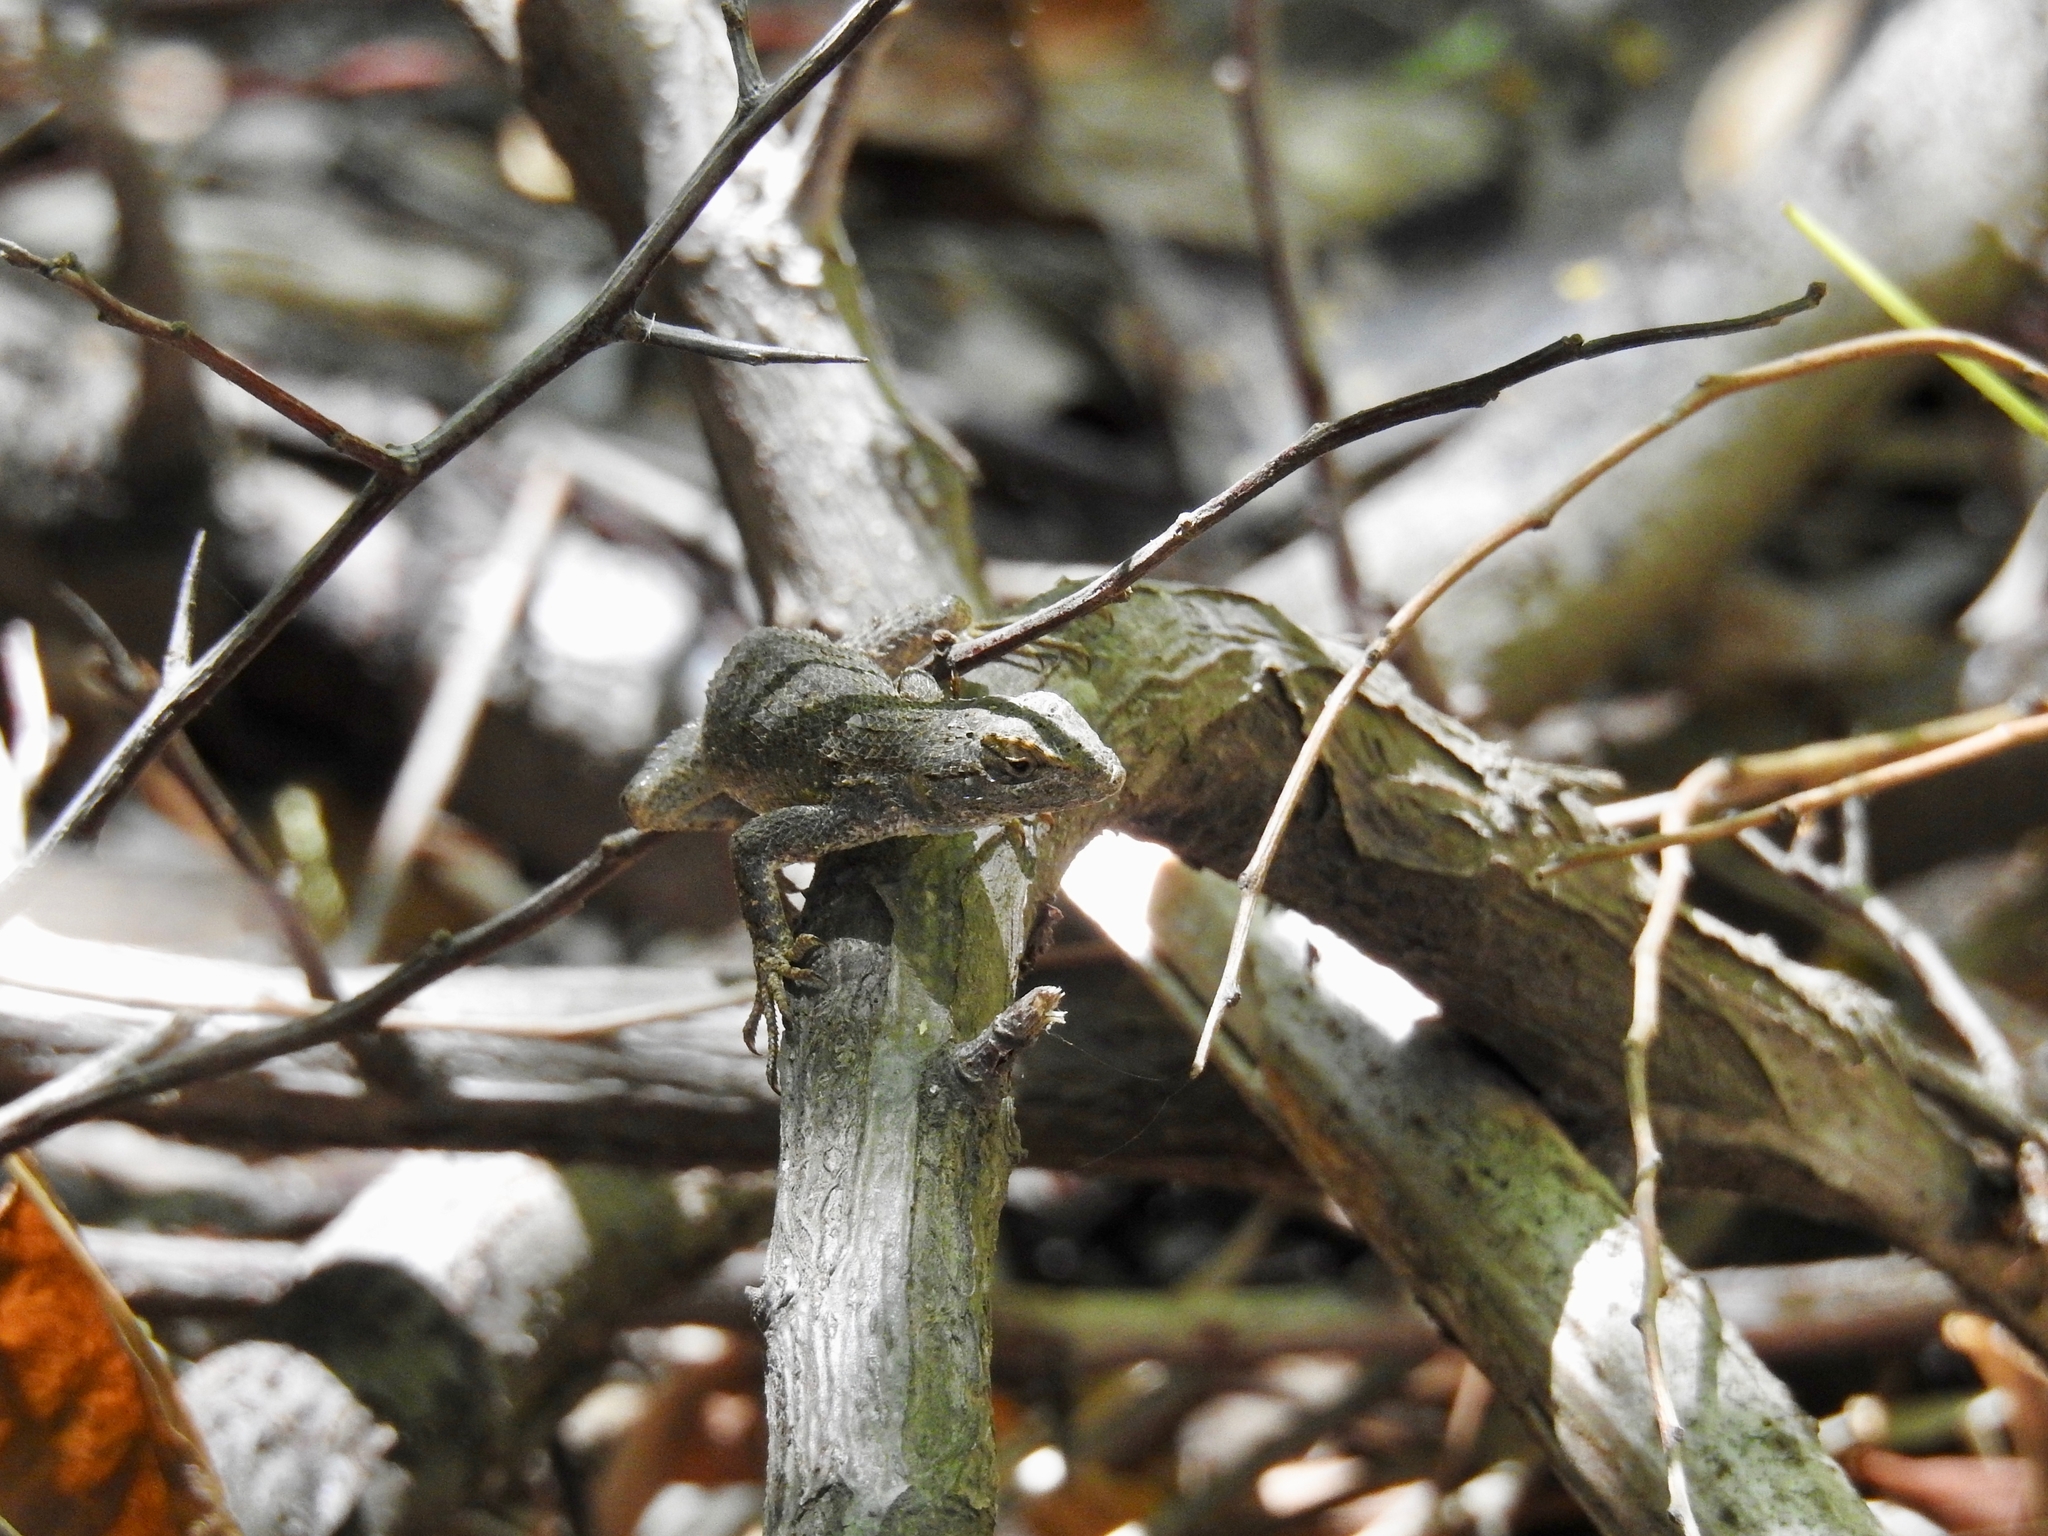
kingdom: Animalia
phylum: Chordata
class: Squamata
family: Phrynosomatidae
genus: Sceloporus
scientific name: Sceloporus occidentalis
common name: Western fence lizard
